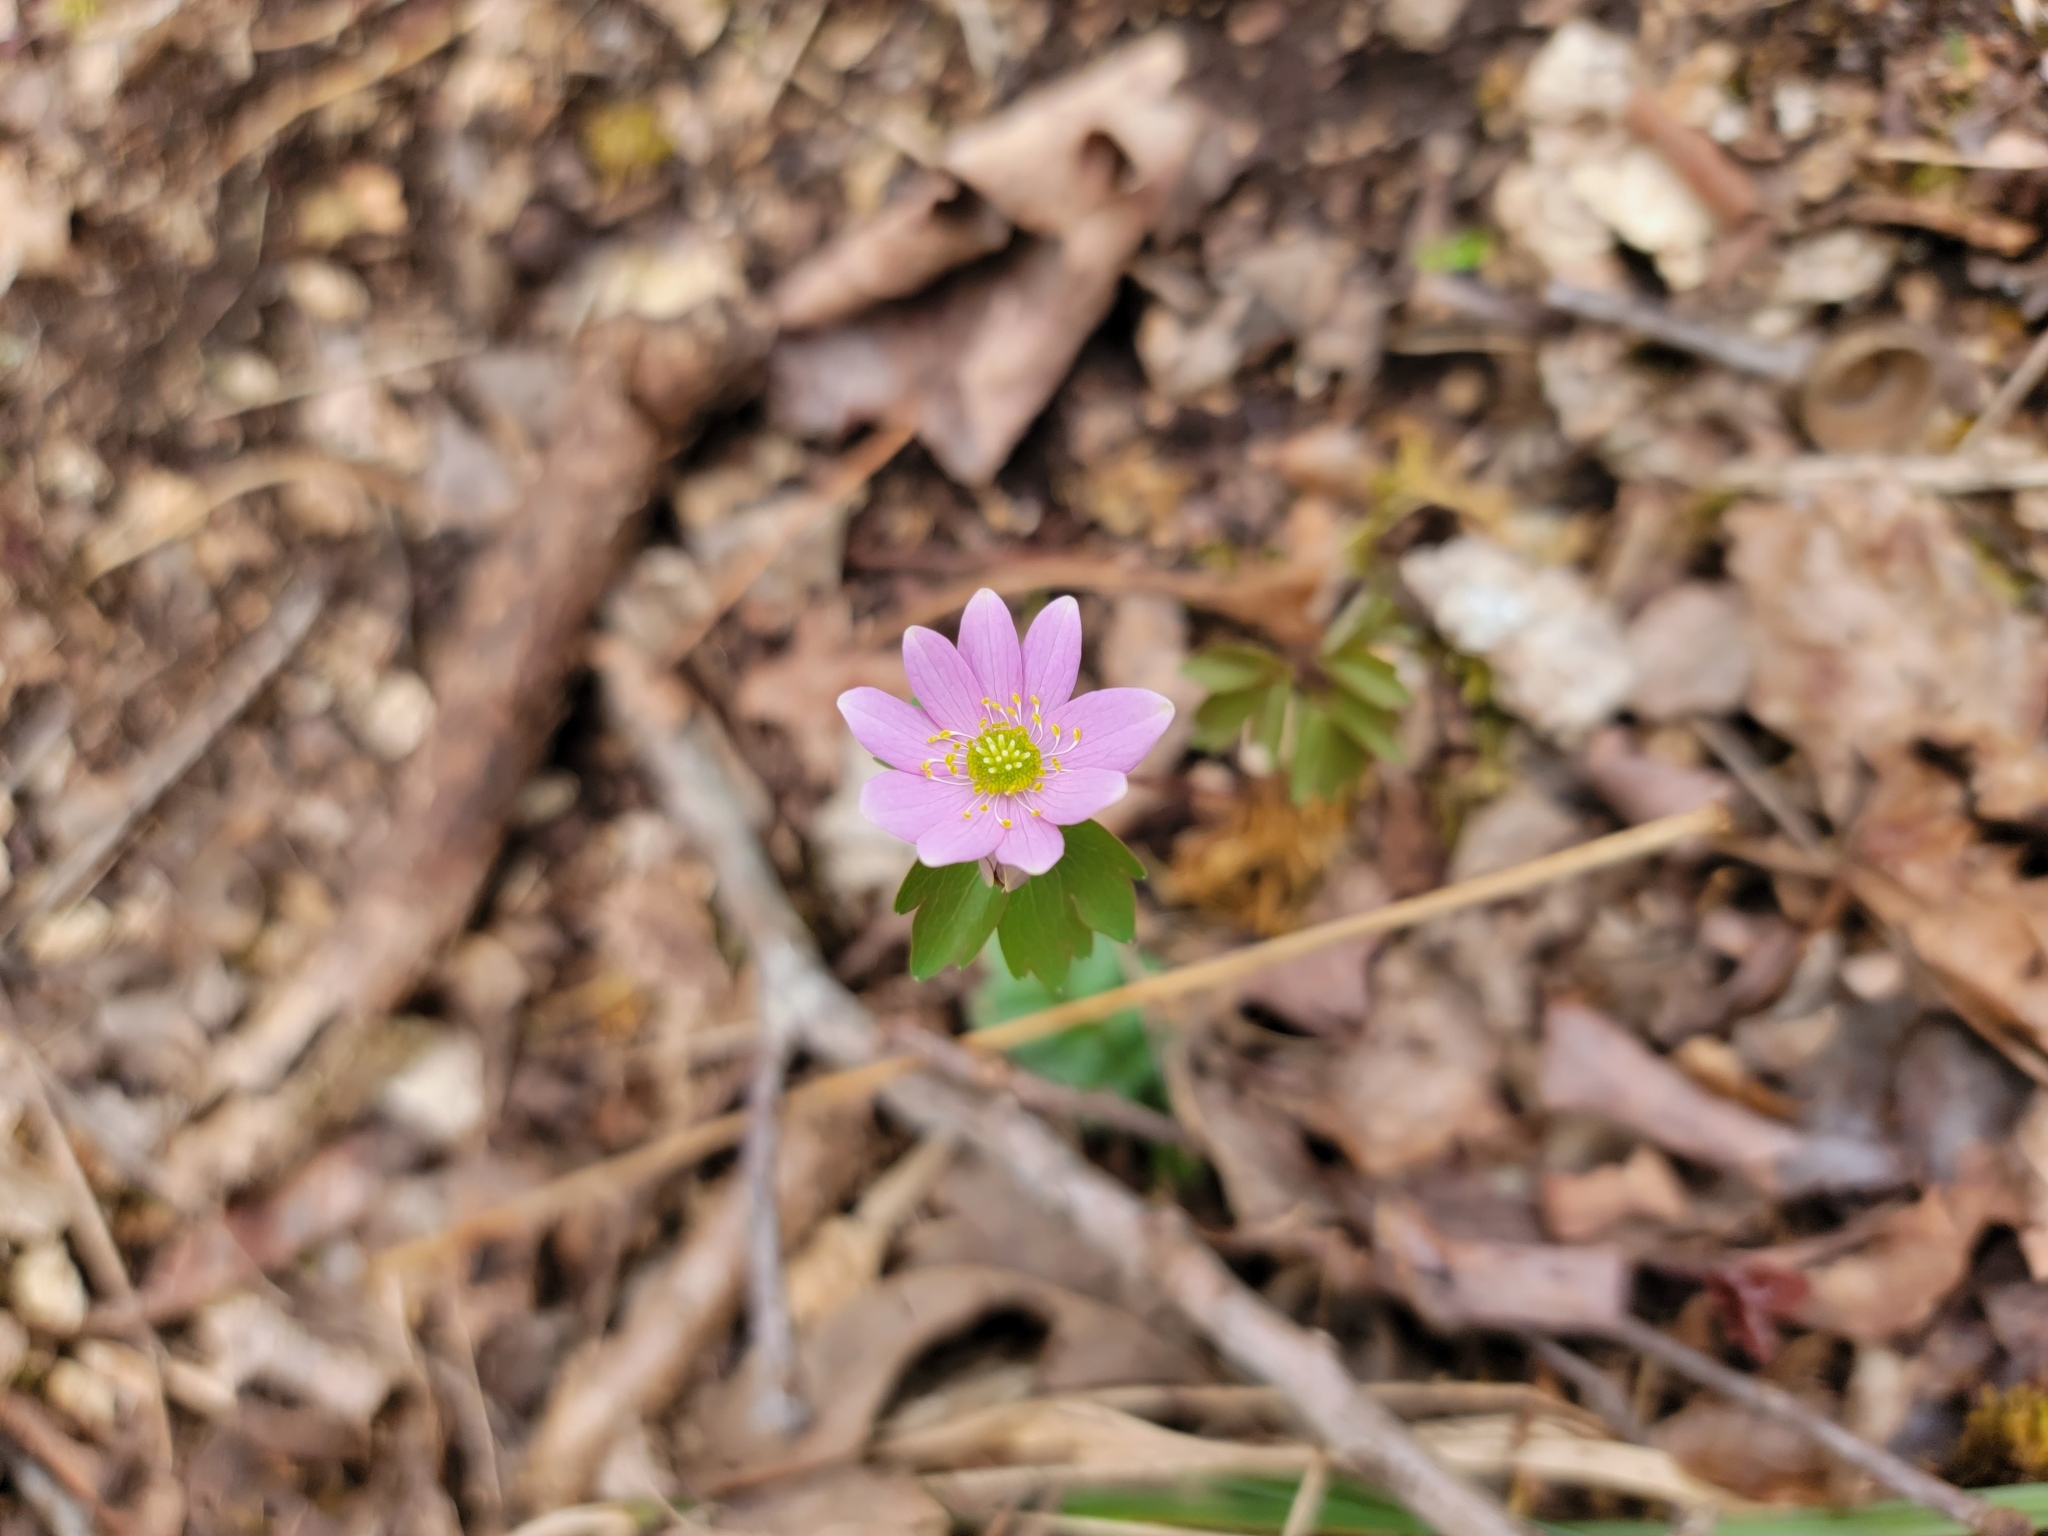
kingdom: Plantae
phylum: Tracheophyta
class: Magnoliopsida
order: Ranunculales
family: Ranunculaceae
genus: Thalictrum
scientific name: Thalictrum thalictroides
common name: Rue-anemone
